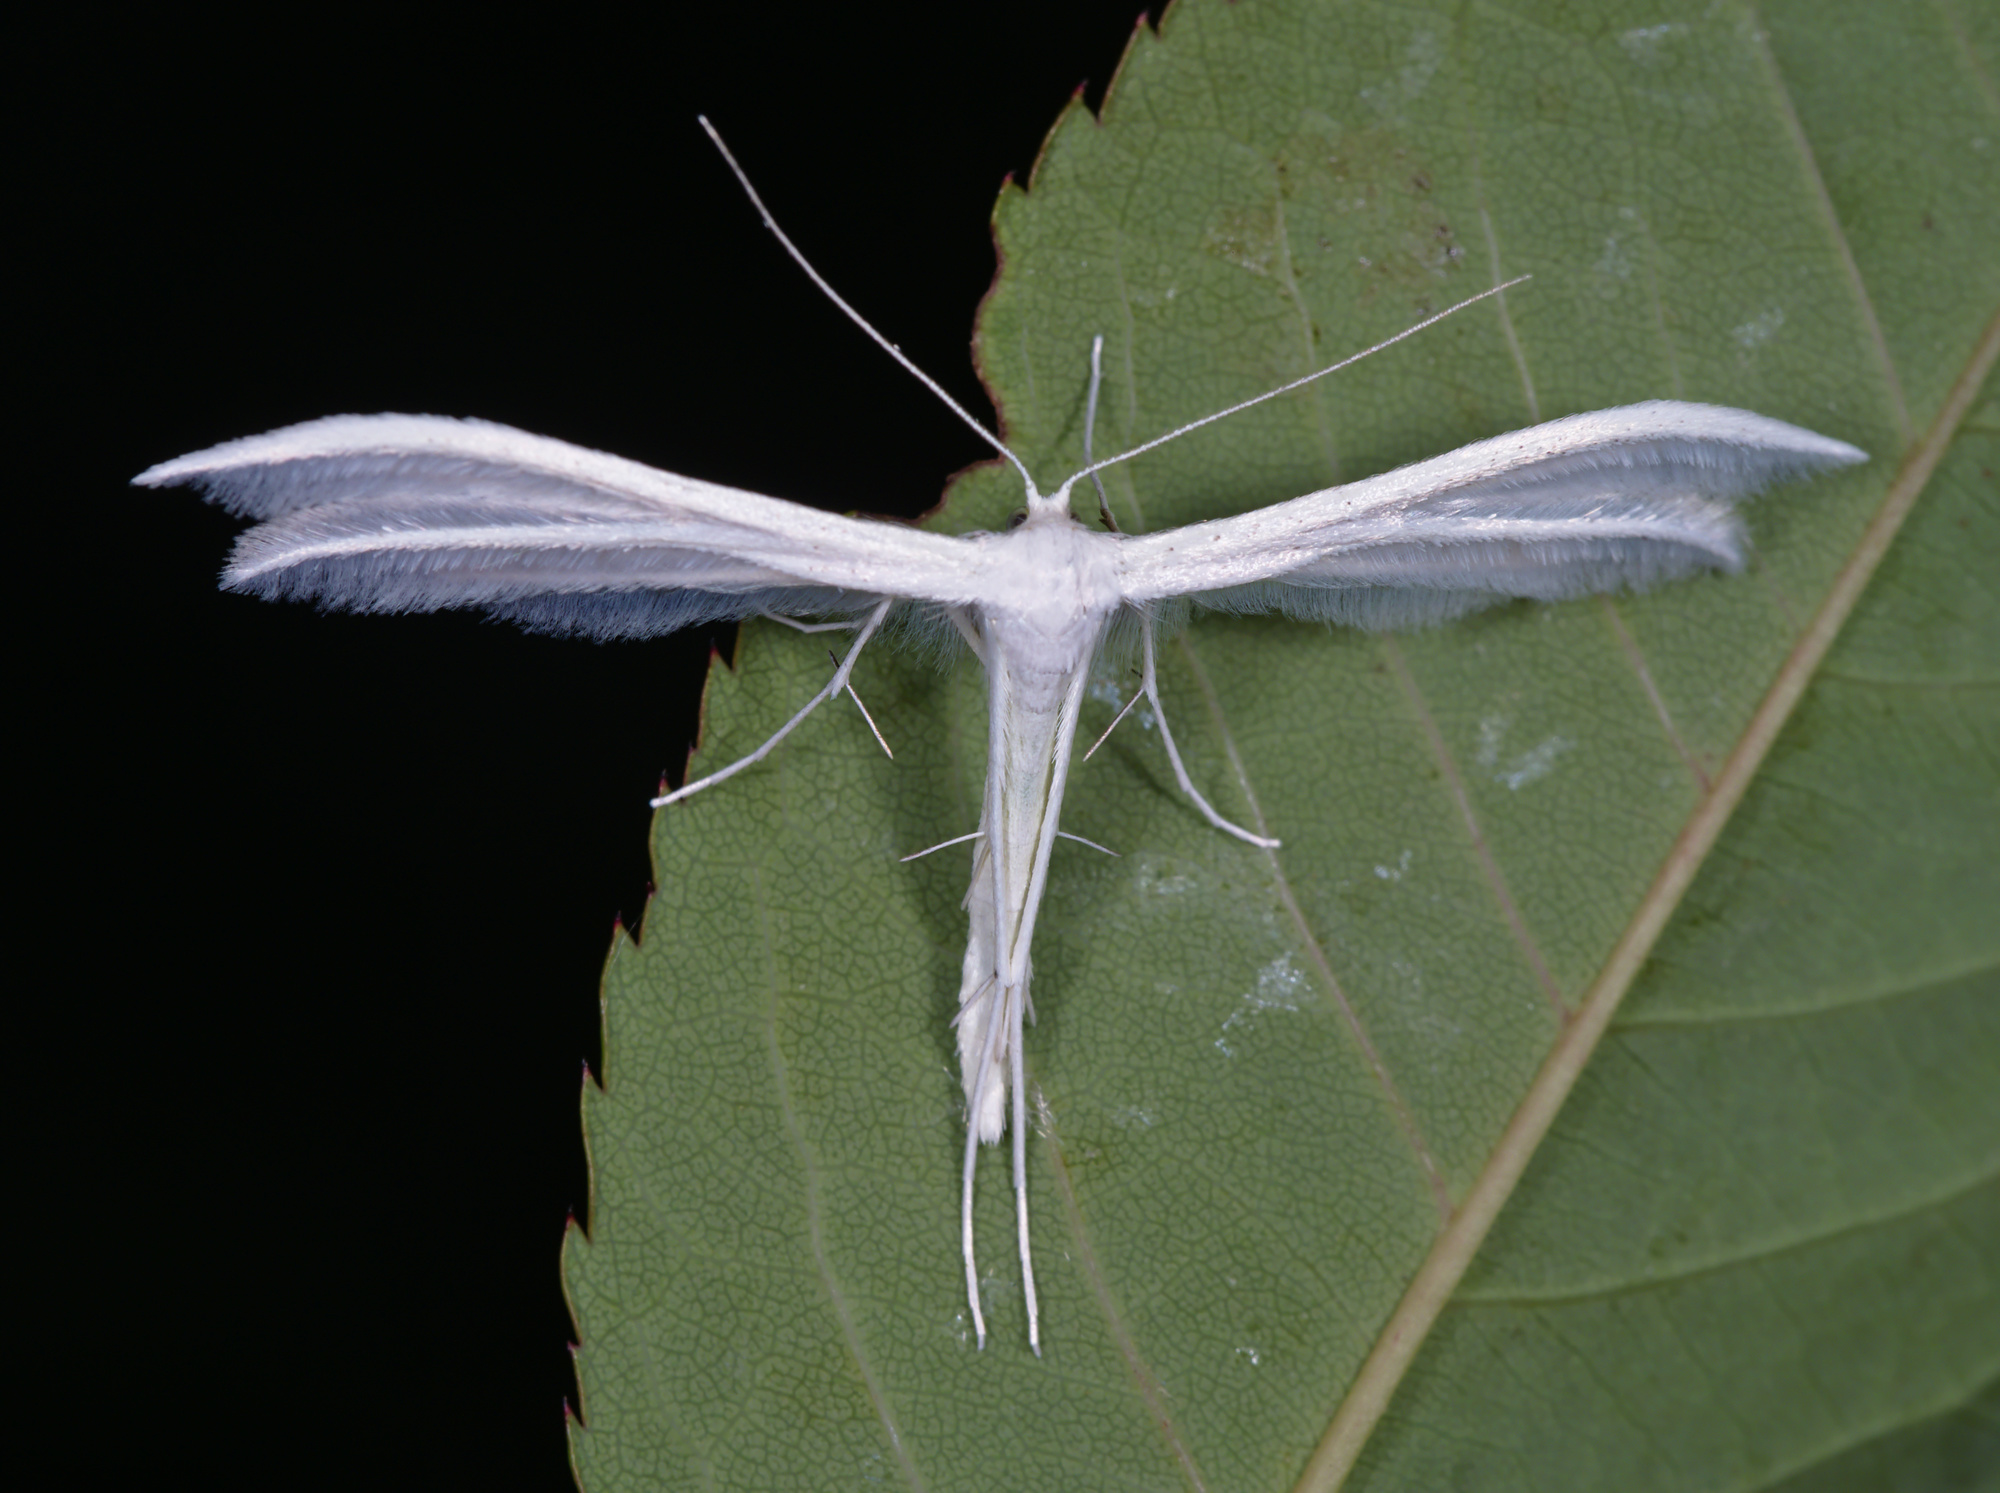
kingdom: Animalia
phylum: Arthropoda
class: Insecta
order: Lepidoptera
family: Pterophoridae
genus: Pterophorus
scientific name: Pterophorus pentadactyla
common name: White plume moth
